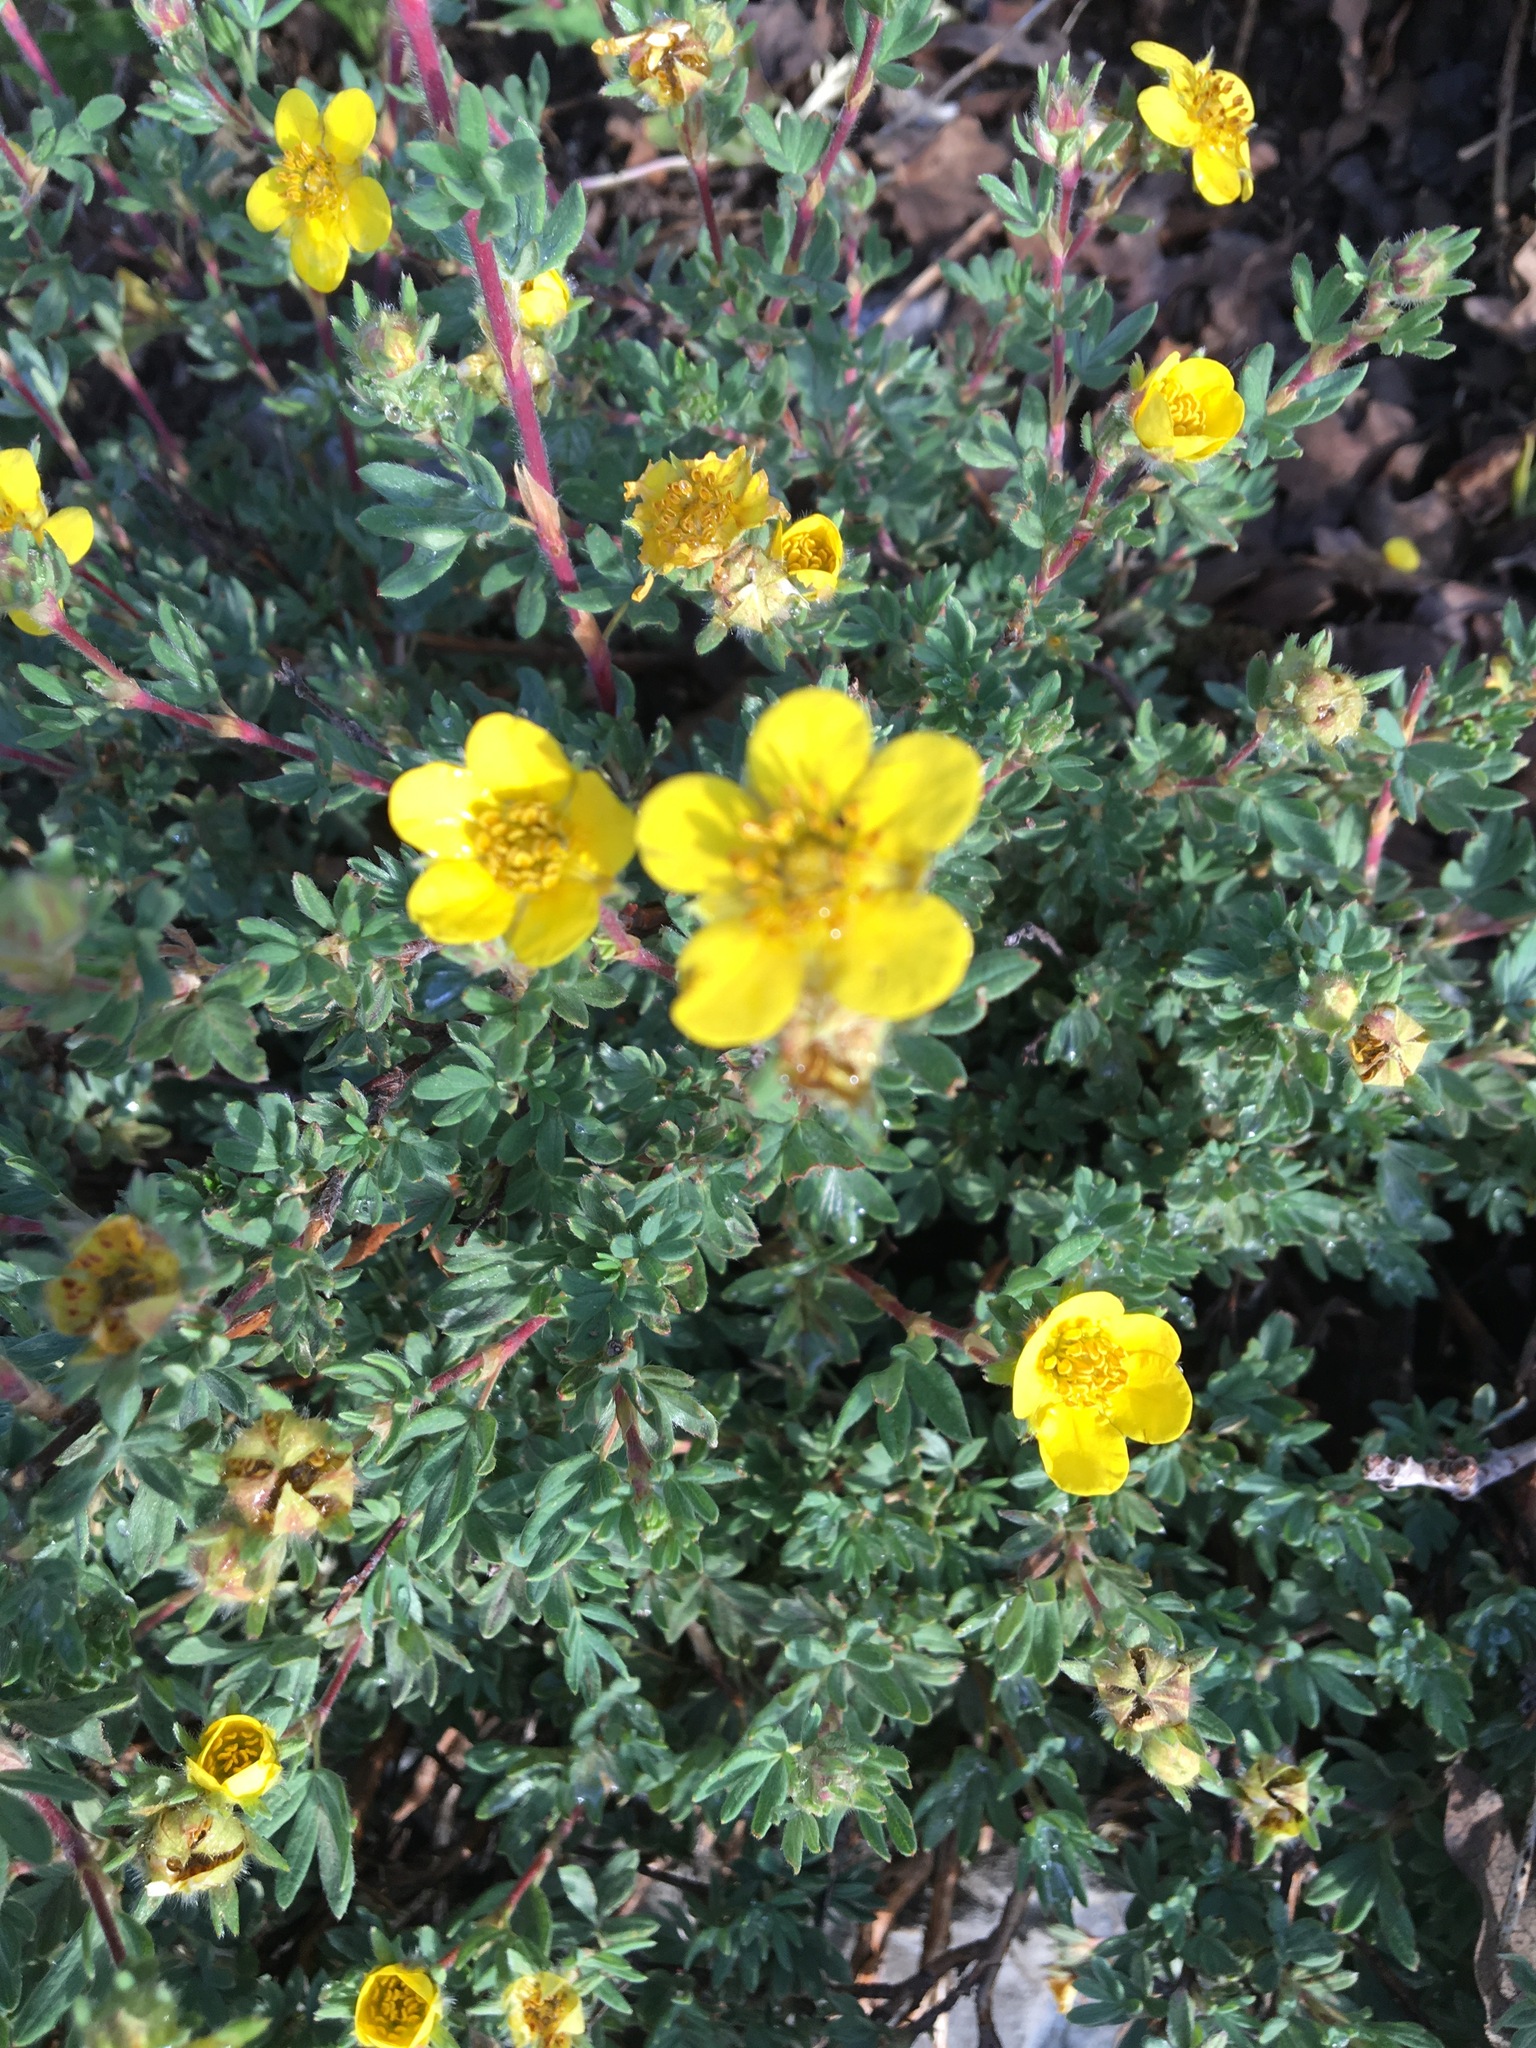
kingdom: Plantae
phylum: Tracheophyta
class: Magnoliopsida
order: Rosales
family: Rosaceae
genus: Dasiphora
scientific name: Dasiphora fruticosa
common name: Shrubby cinquefoil
